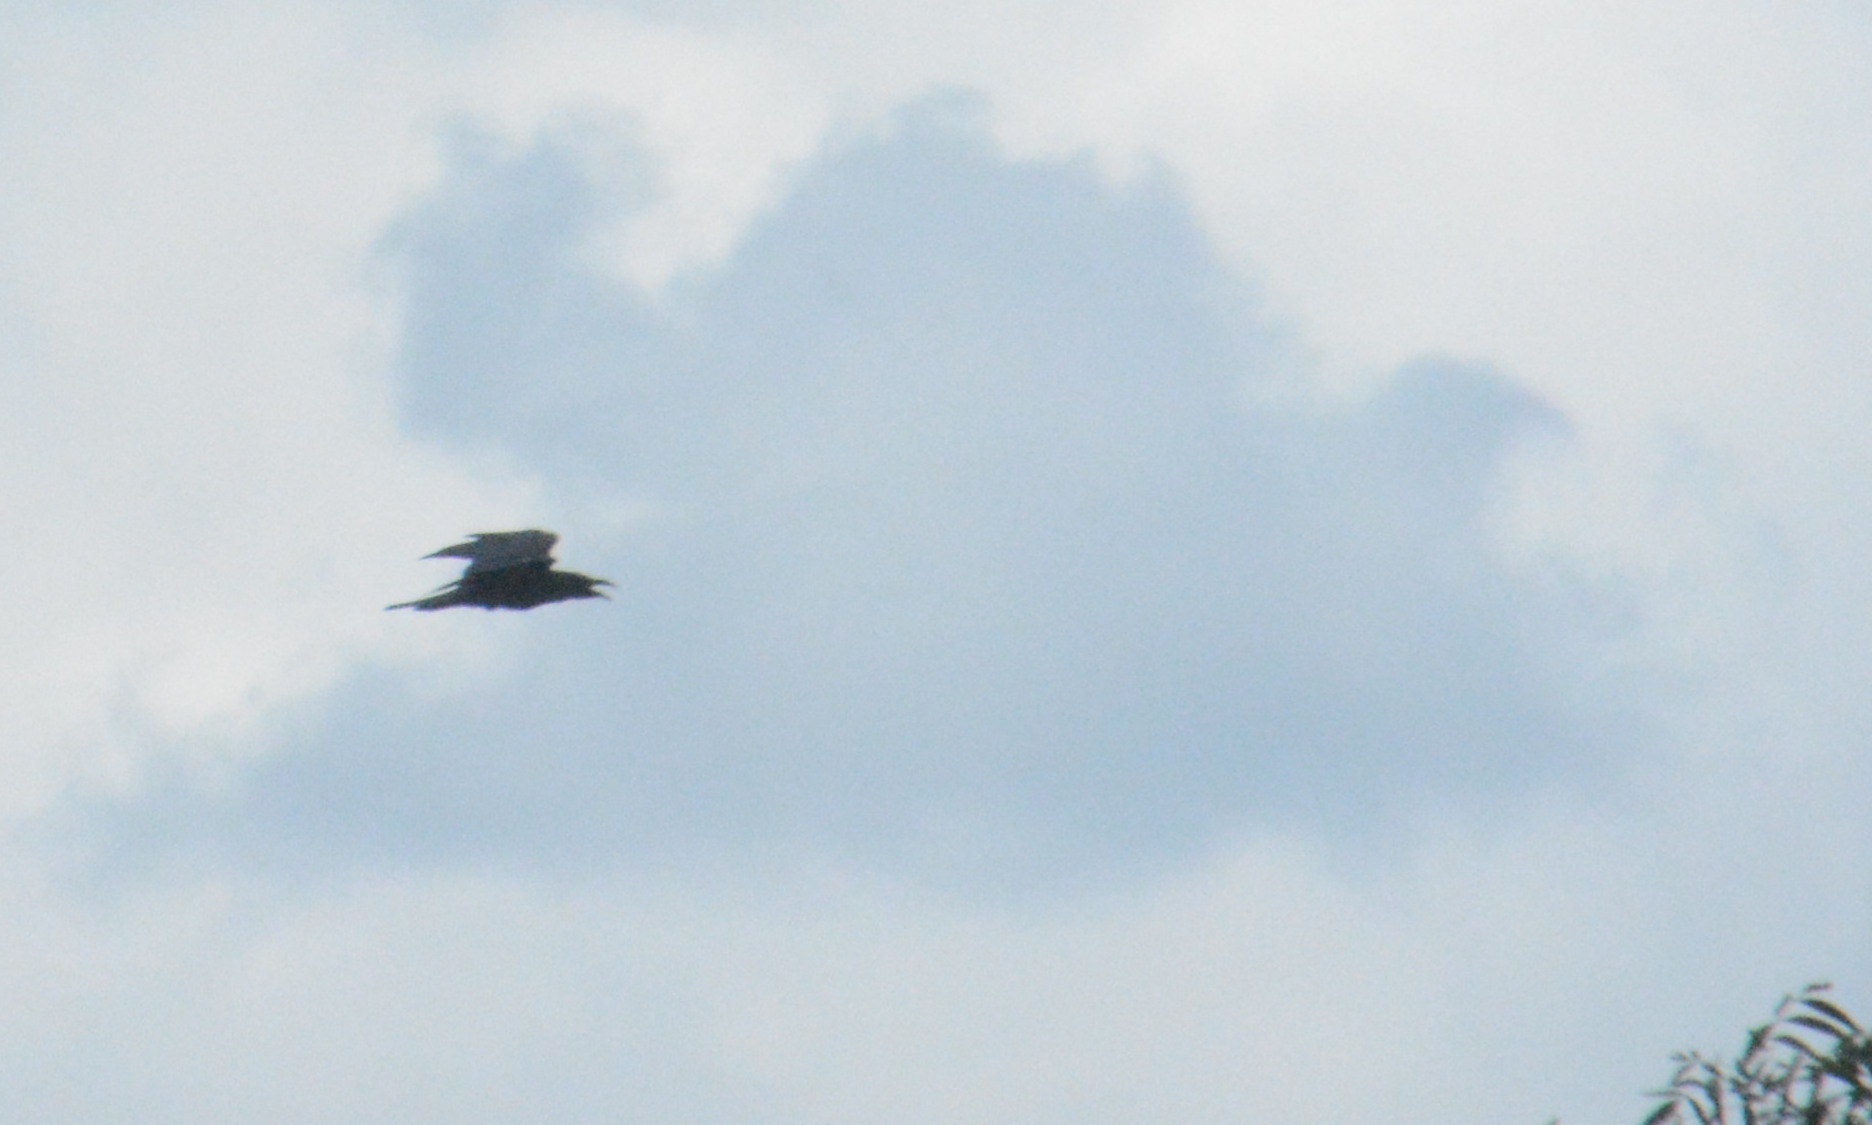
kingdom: Animalia
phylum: Chordata
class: Aves
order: Passeriformes
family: Corvidae
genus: Corvus
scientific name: Corvus brachyrhynchos
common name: American crow
